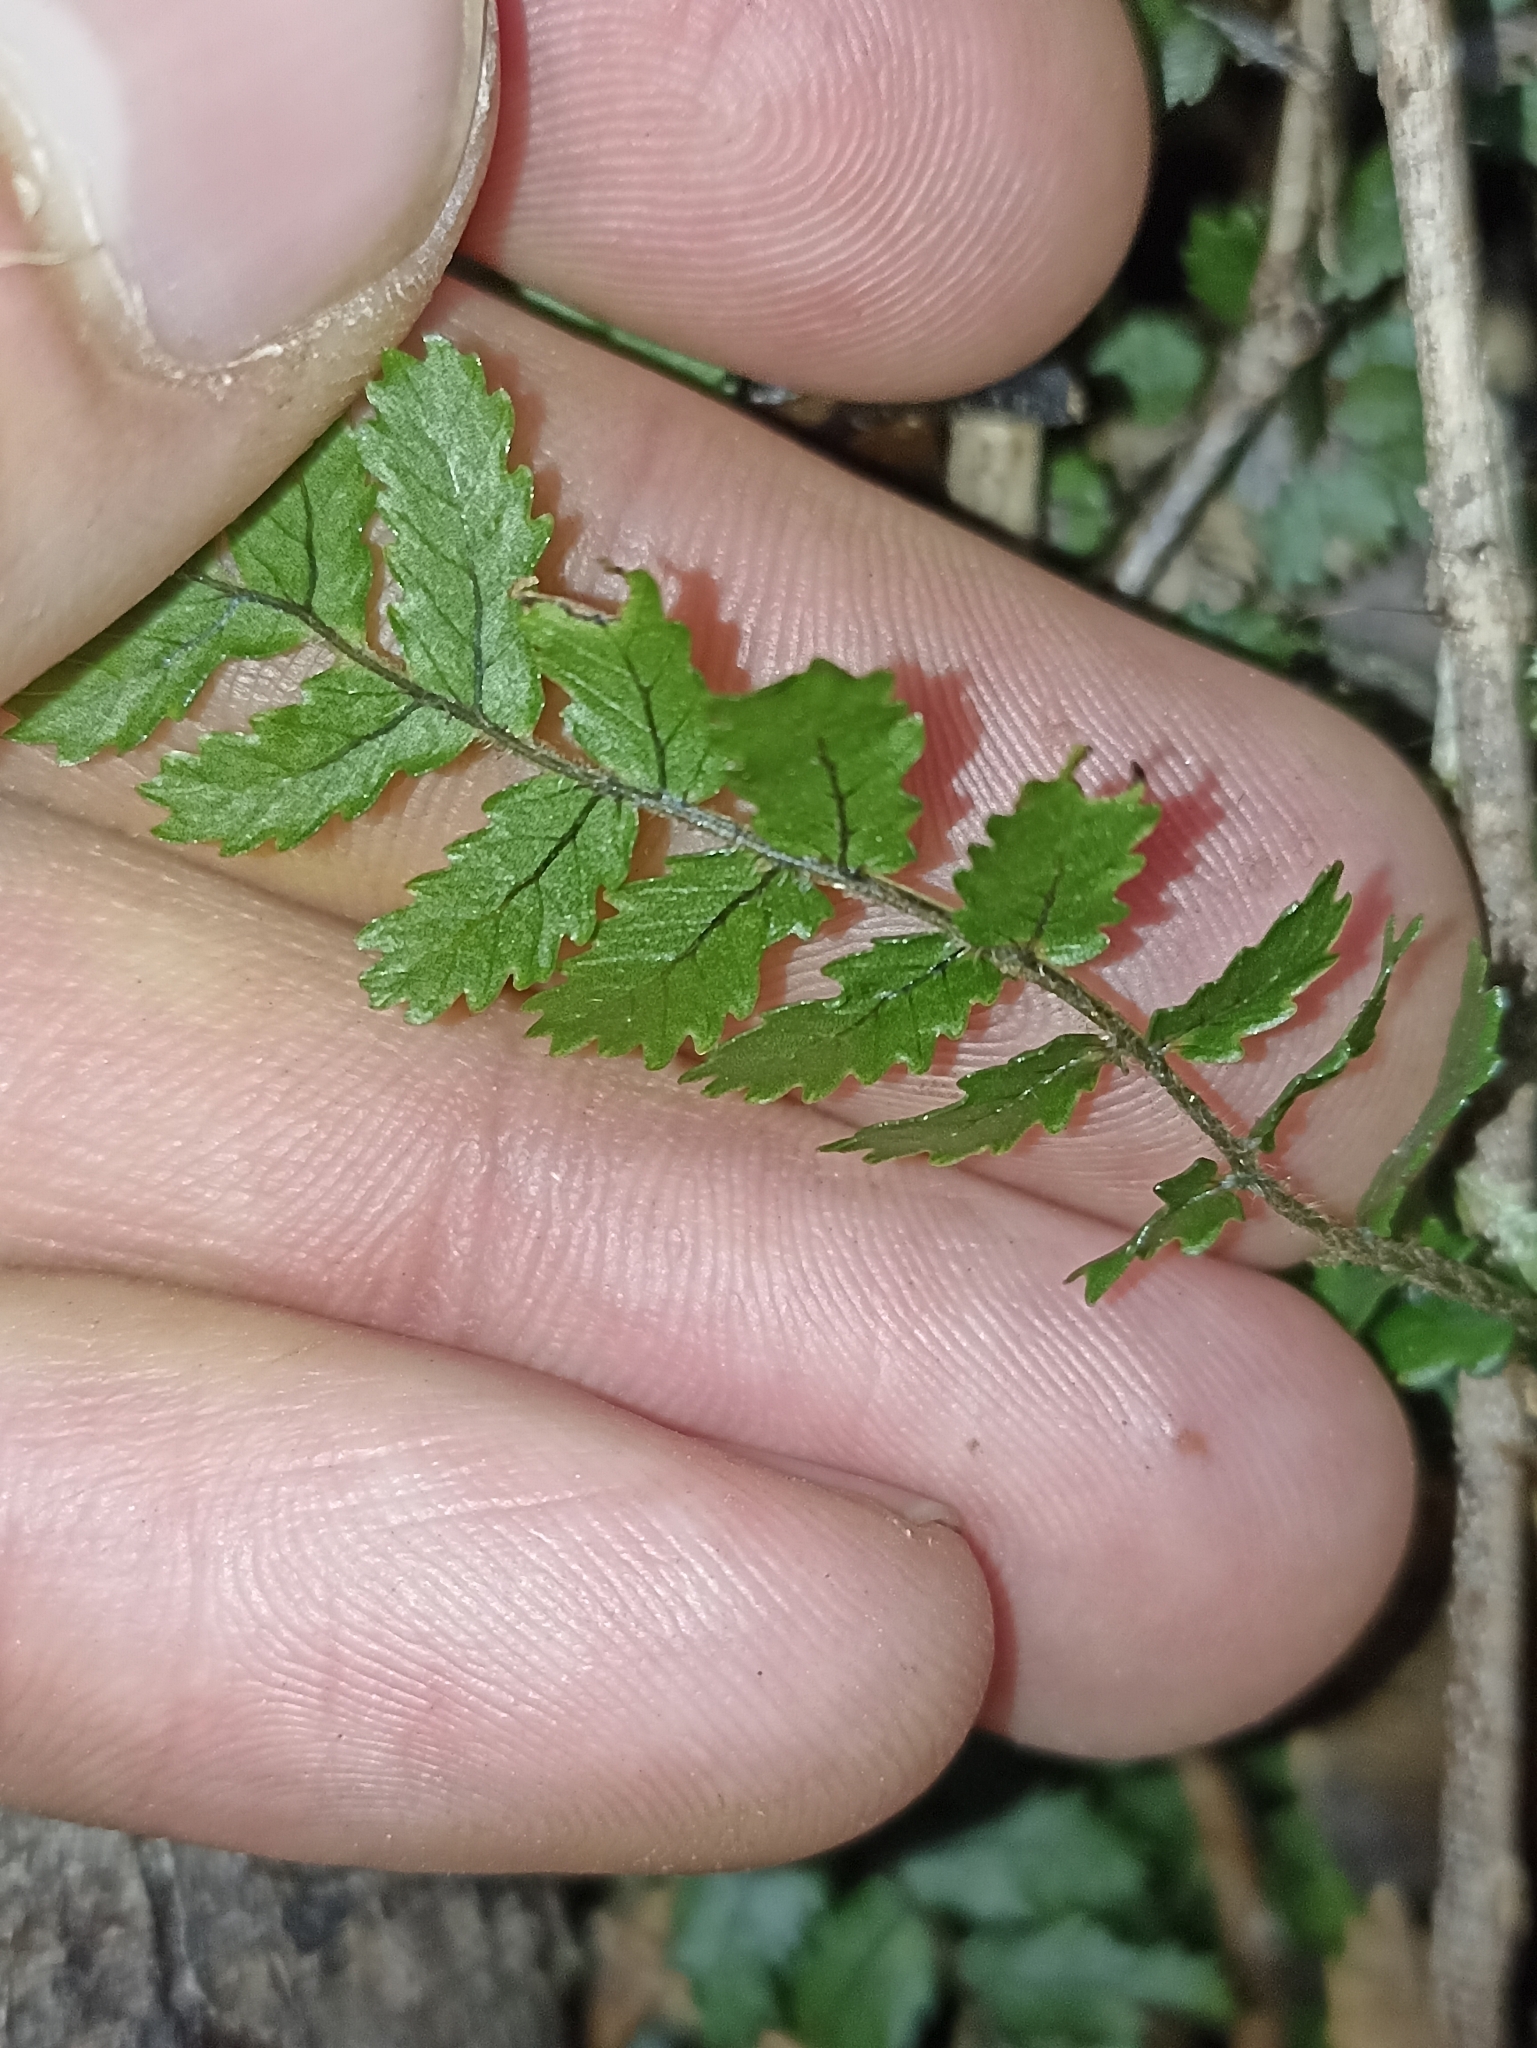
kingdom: Plantae
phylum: Tracheophyta
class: Polypodiopsida
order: Polypodiales
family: Blechnaceae
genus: Icarus
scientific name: Icarus filiformis
